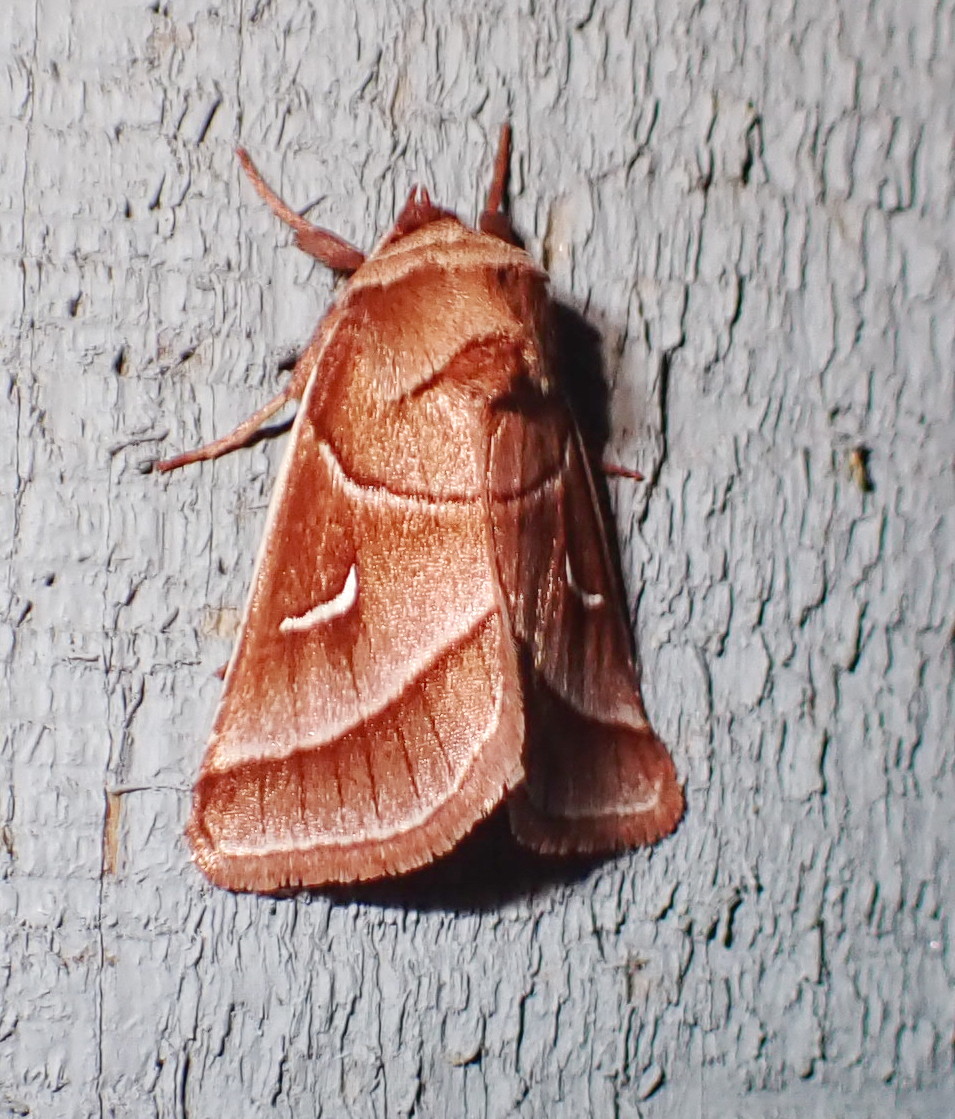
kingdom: Animalia
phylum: Arthropoda
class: Insecta
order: Lepidoptera
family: Noctuidae
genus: Fagitana
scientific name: Fagitana littera
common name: Marsh fern moth
